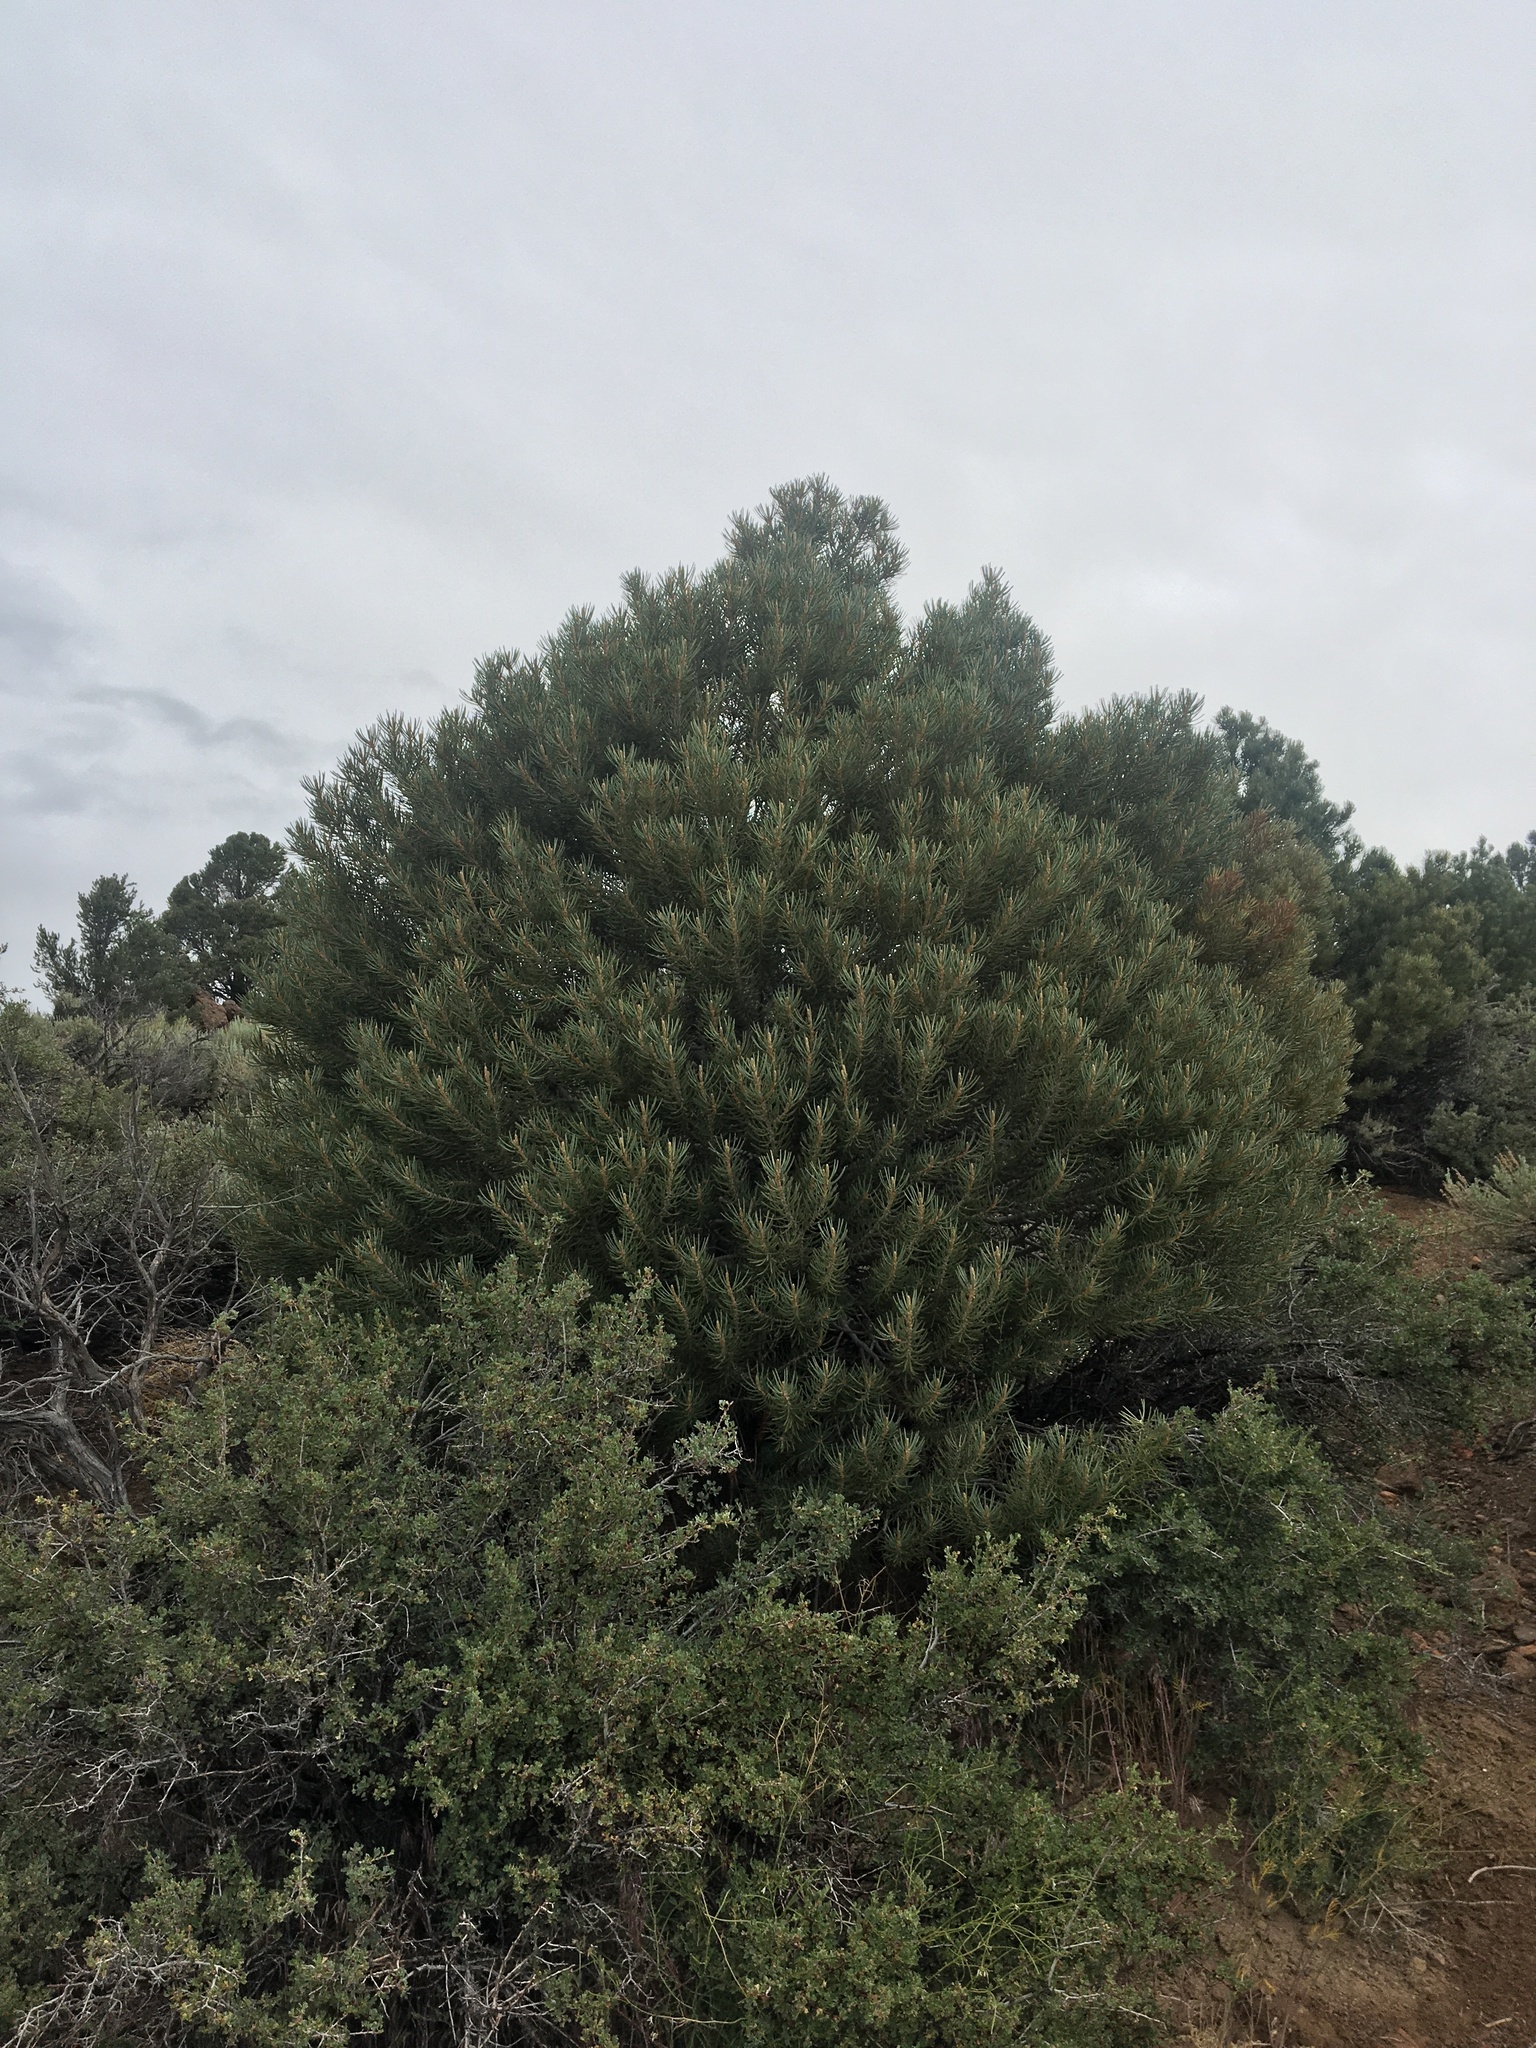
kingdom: Plantae
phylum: Tracheophyta
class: Pinopsida
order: Pinales
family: Pinaceae
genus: Pinus
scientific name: Pinus monophylla
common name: One-leaved nut pine
